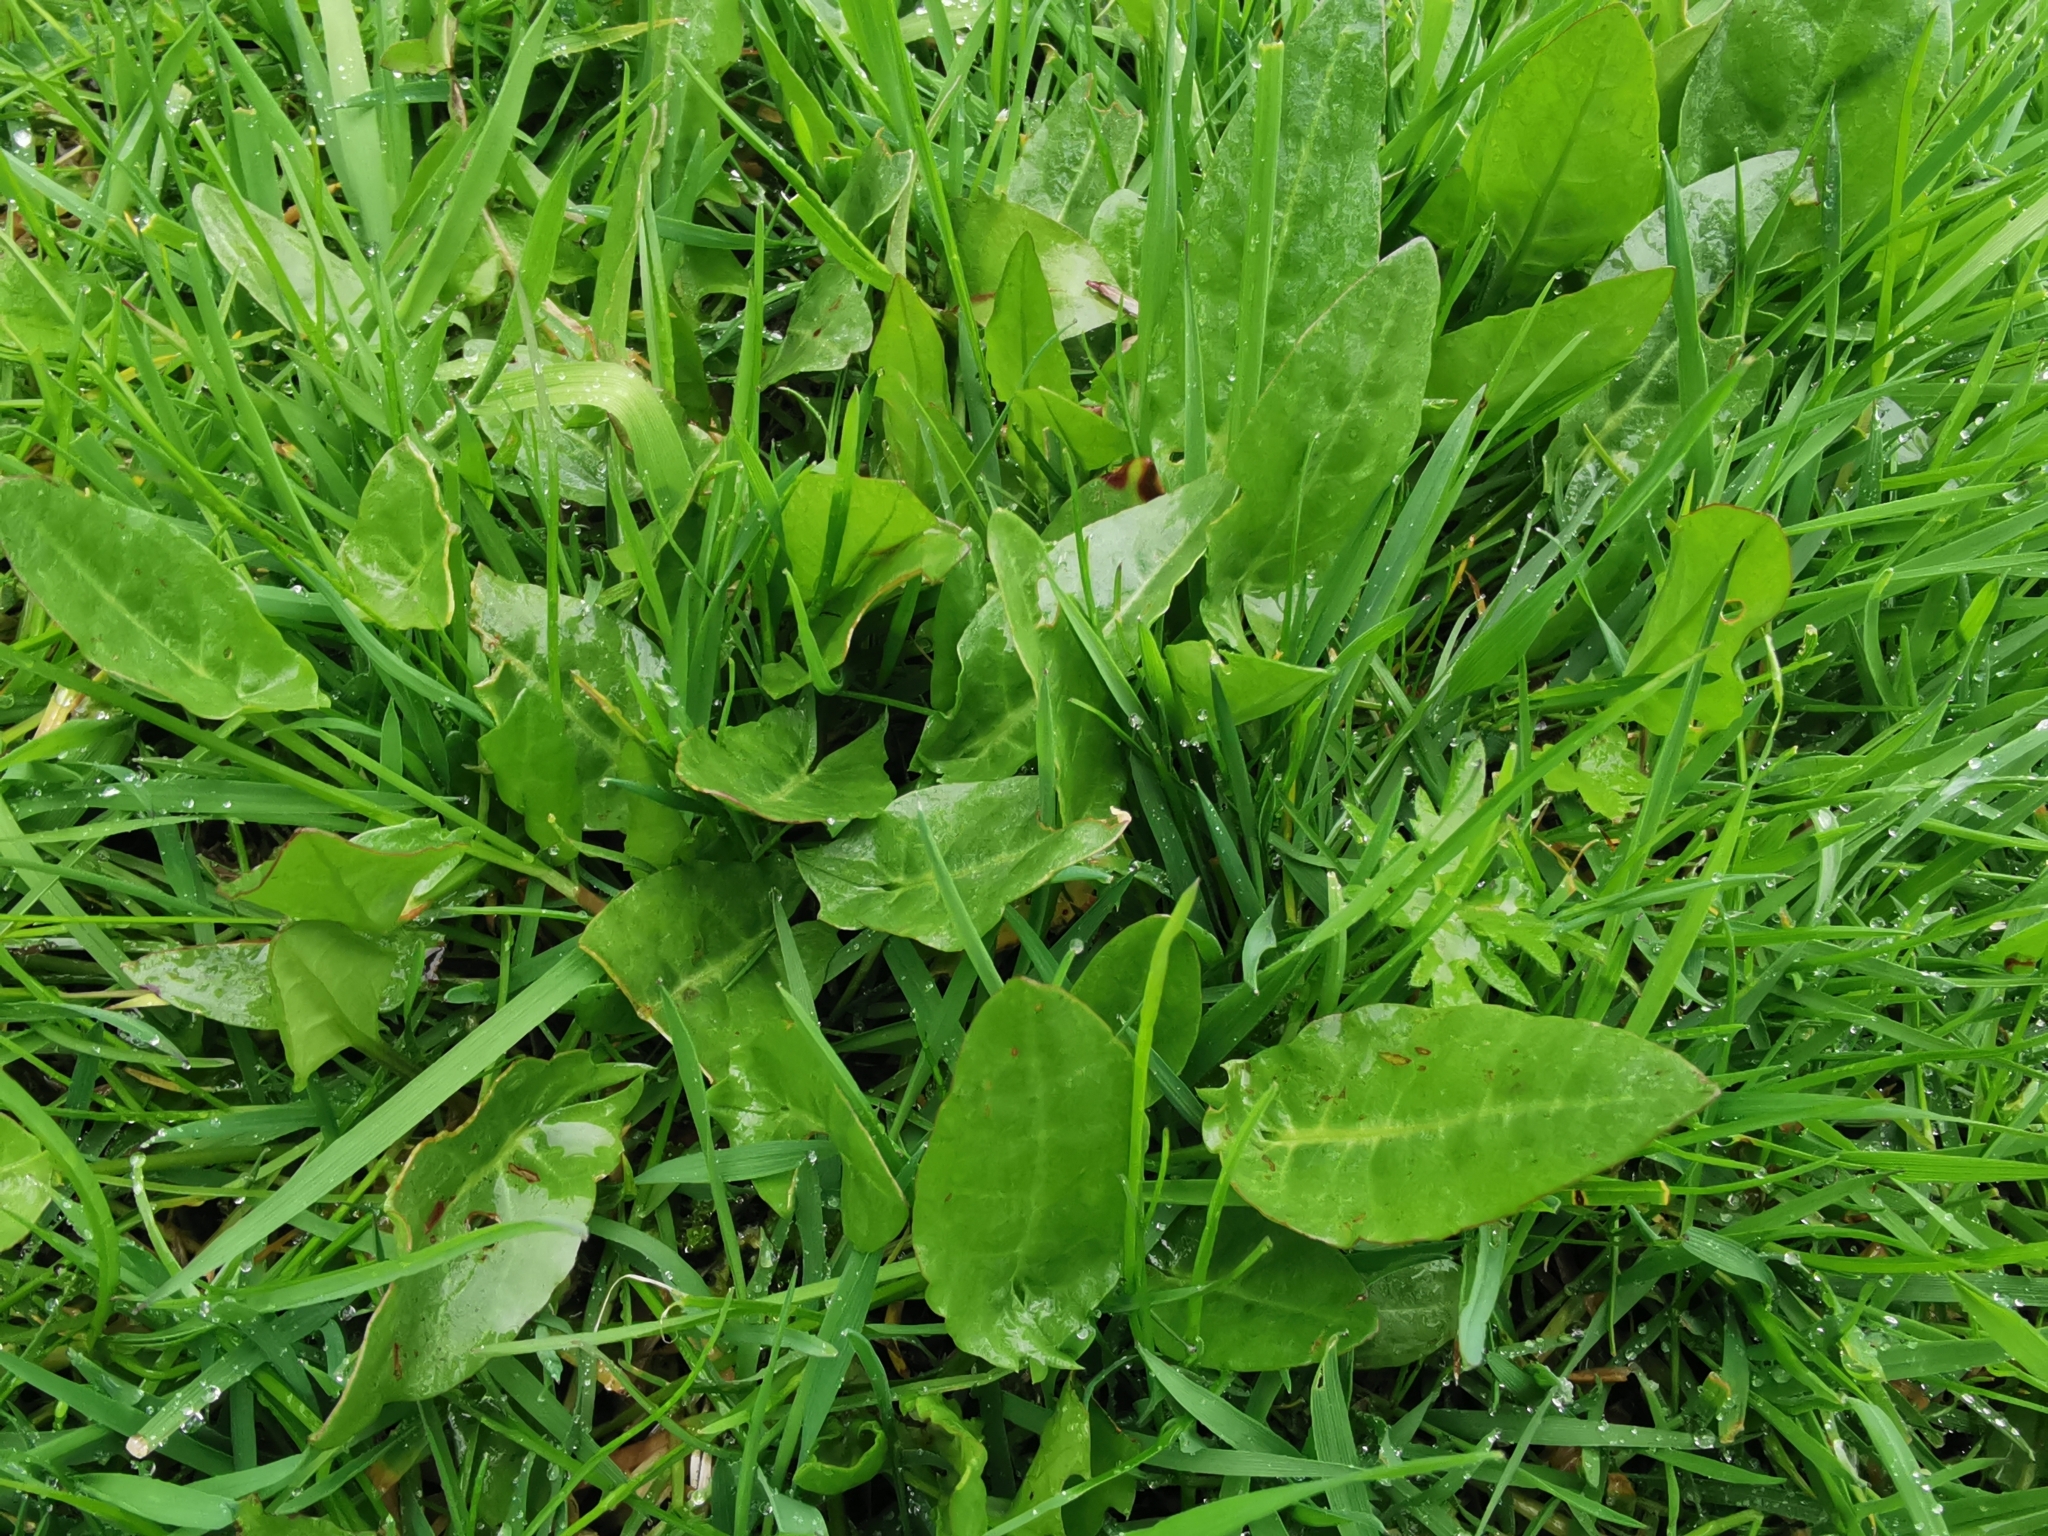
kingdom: Plantae
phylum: Tracheophyta
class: Magnoliopsida
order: Caryophyllales
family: Polygonaceae
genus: Rumex
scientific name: Rumex acetosa
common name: Garden sorrel
